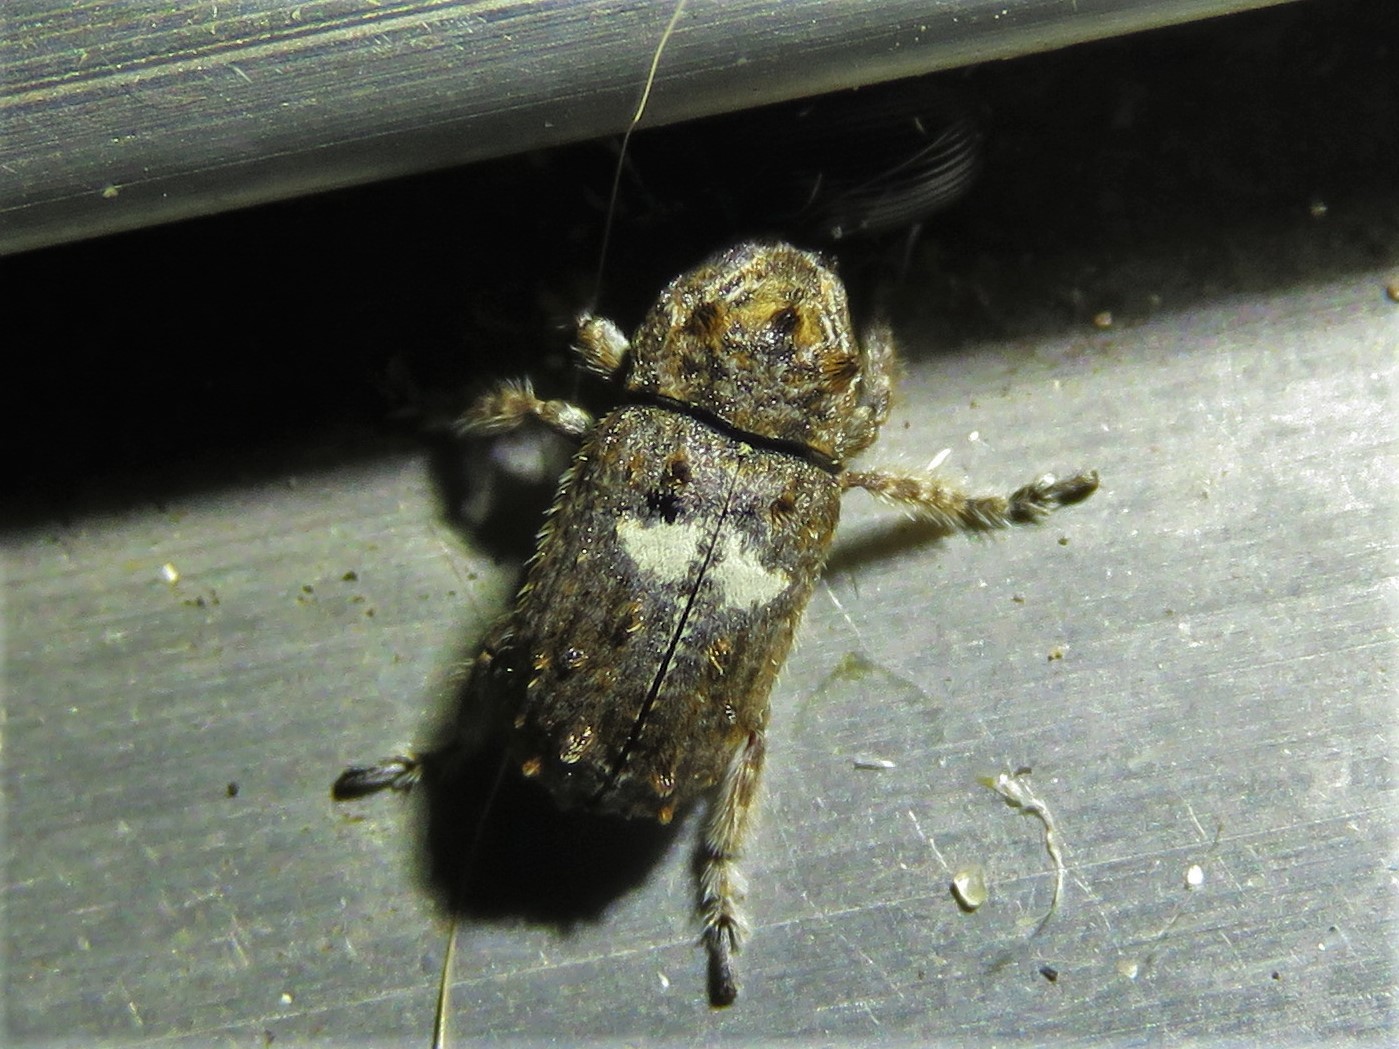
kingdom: Animalia
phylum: Arthropoda
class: Insecta
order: Coleoptera
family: Anthribidae
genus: Toxonotus
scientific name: Toxonotus cornutus
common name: Fungus weevil
